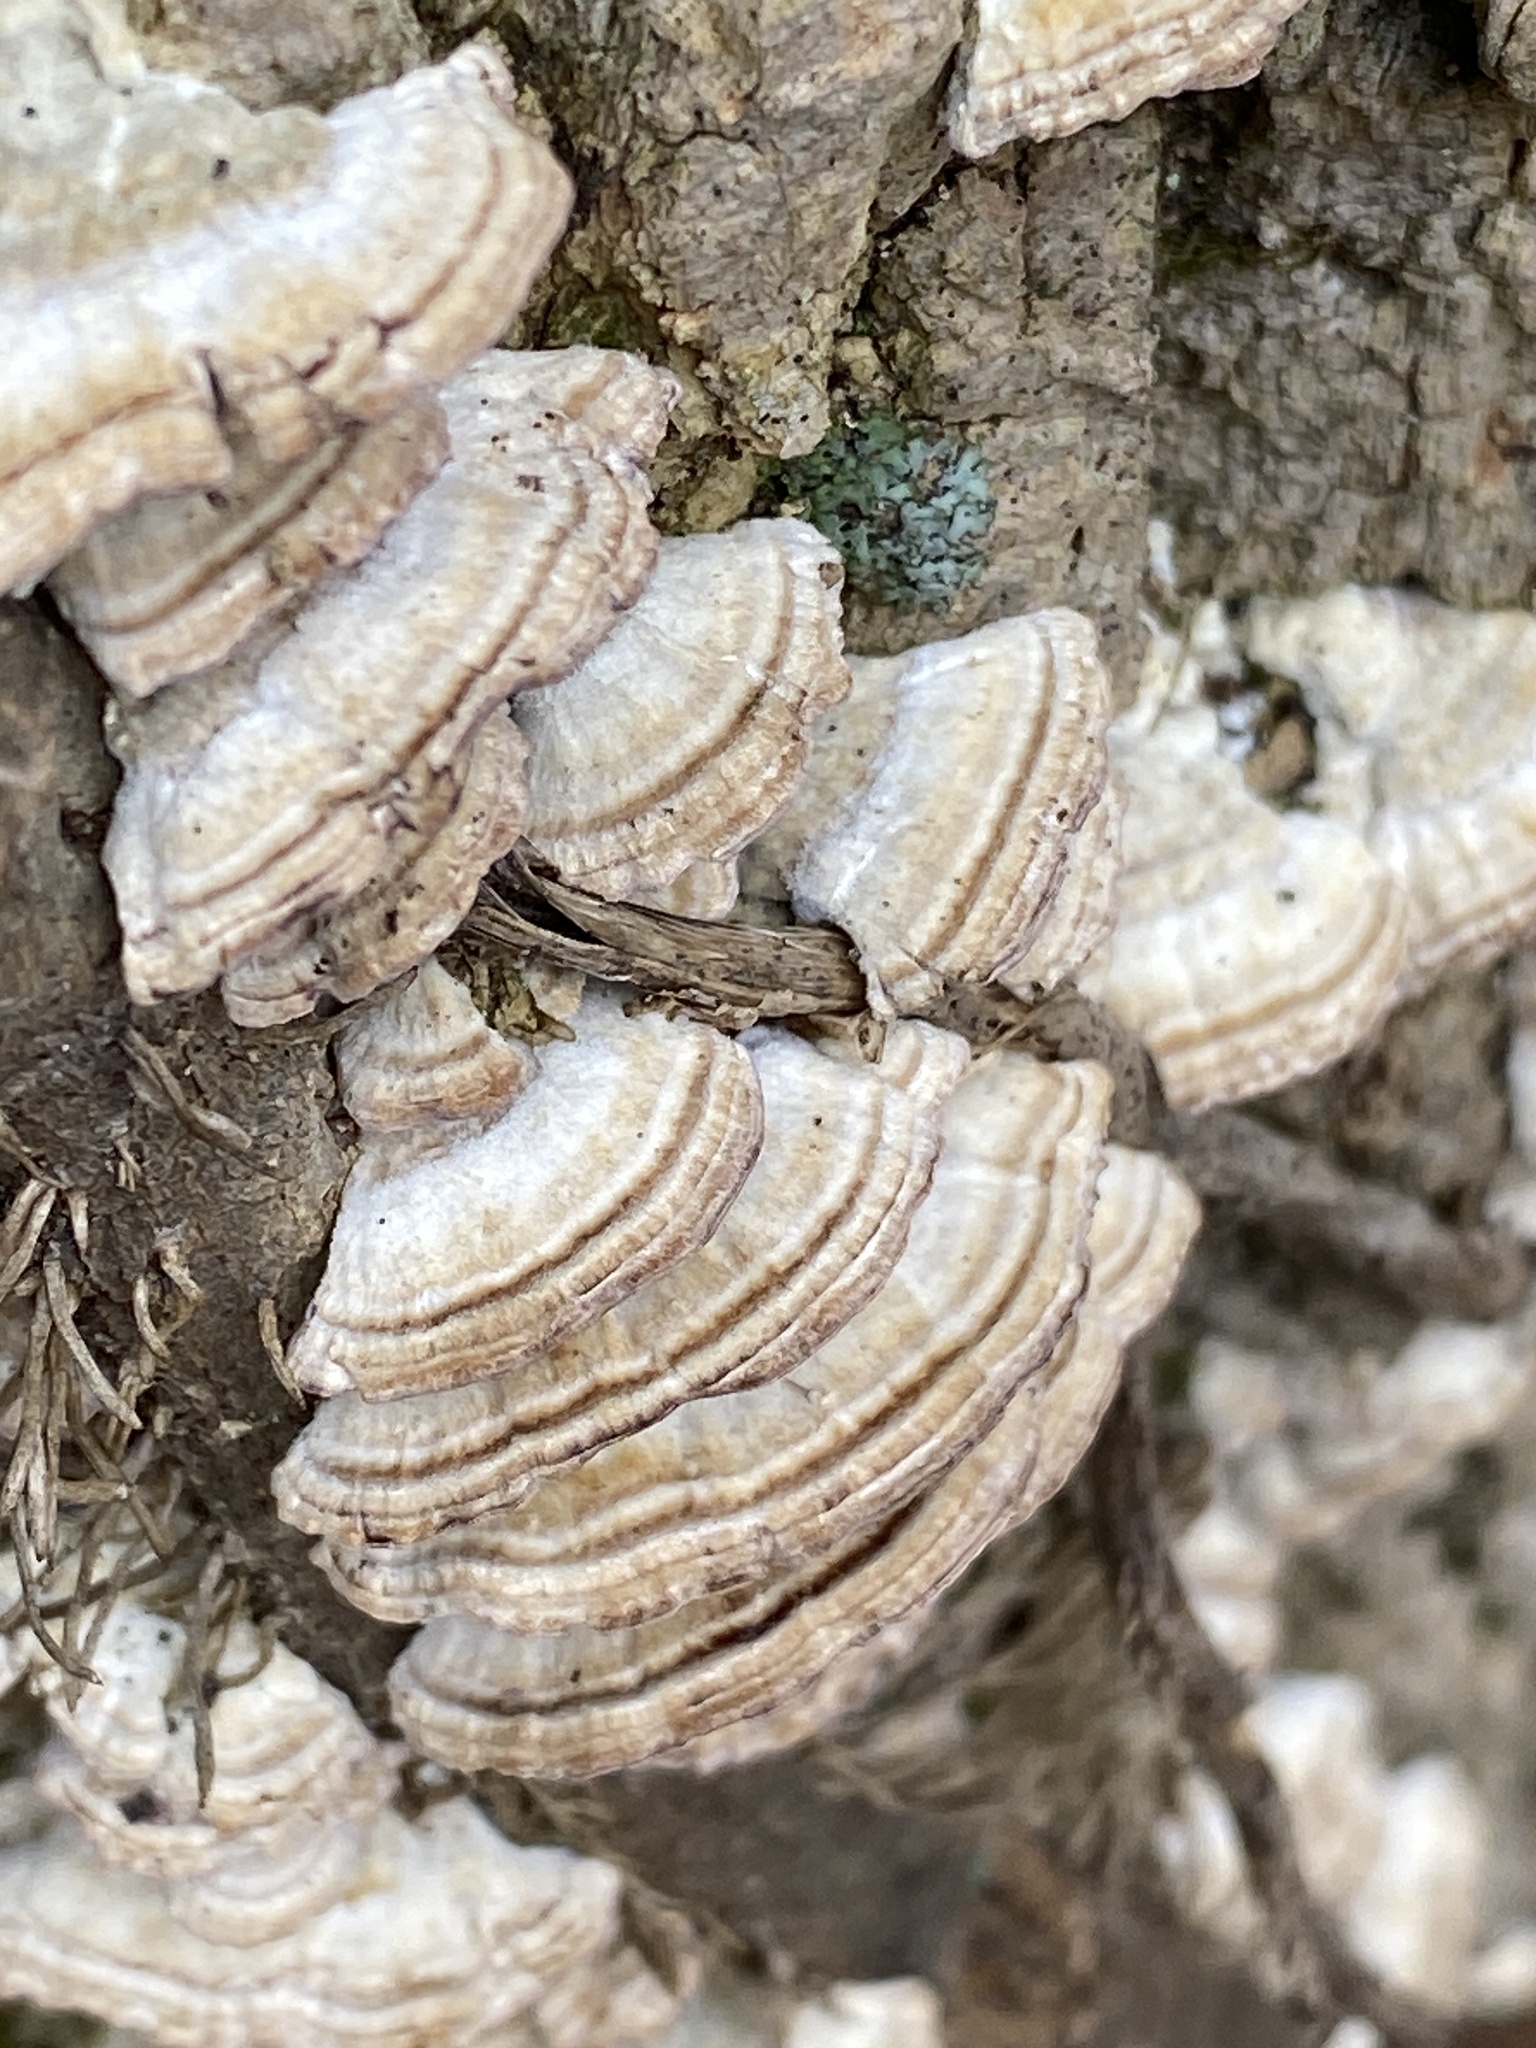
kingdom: Fungi
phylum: Basidiomycota
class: Agaricomycetes
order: Hymenochaetales
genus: Trichaptum
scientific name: Trichaptum biforme
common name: Violet-toothed polypore
